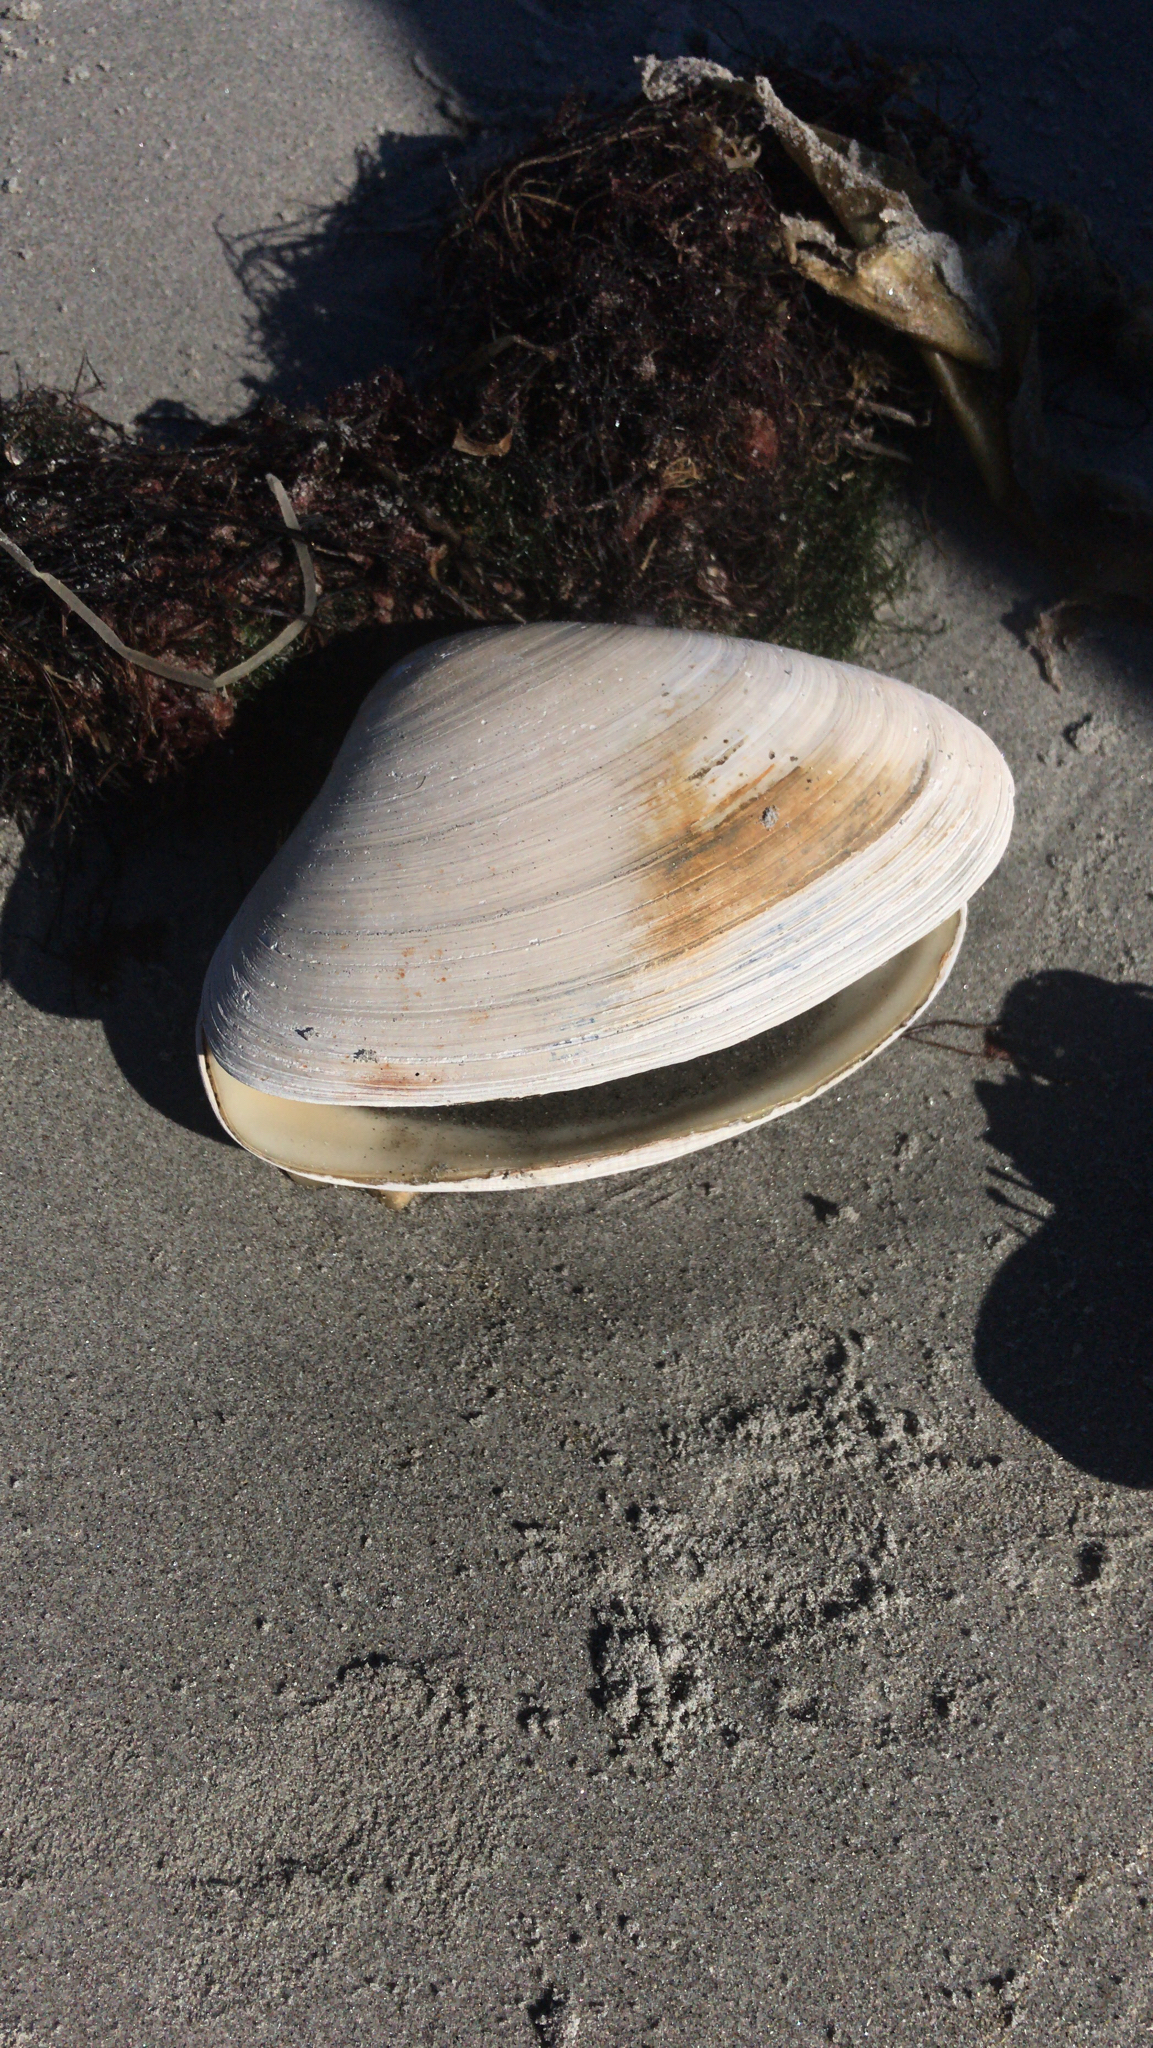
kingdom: Animalia
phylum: Mollusca
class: Bivalvia
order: Venerida
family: Mactridae
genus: Spisula
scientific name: Spisula solidissima
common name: Atlantic surf clam
